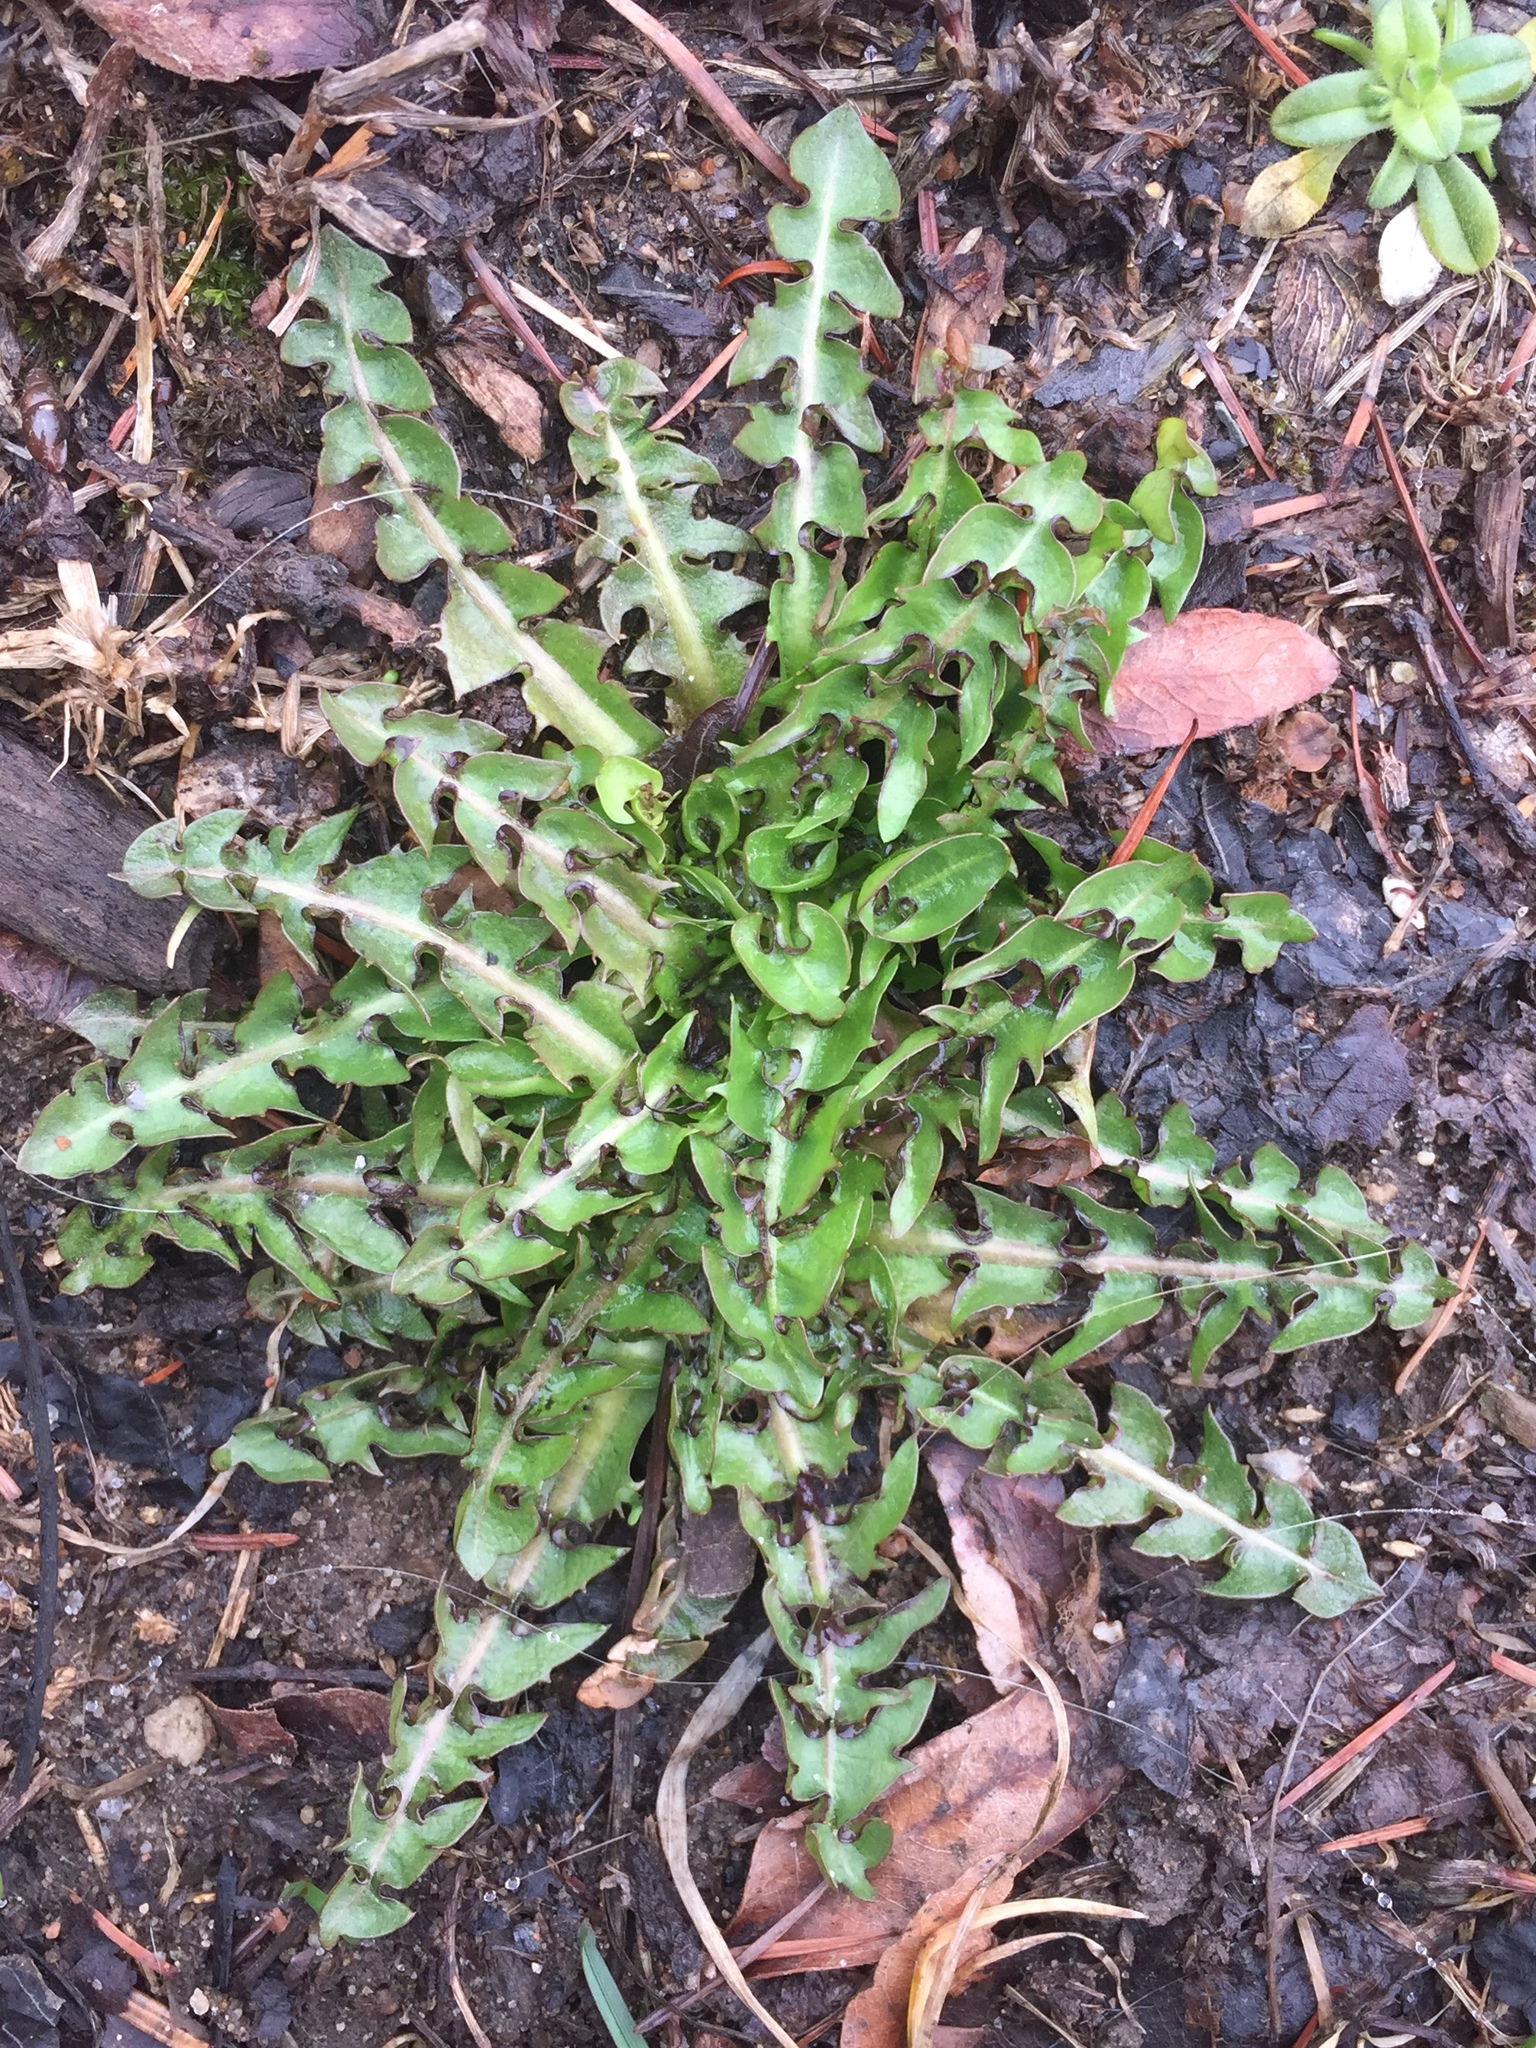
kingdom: Plantae
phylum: Tracheophyta
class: Magnoliopsida
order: Asterales
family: Asteraceae
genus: Taraxacum
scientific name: Taraxacum officinale
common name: Common dandelion
